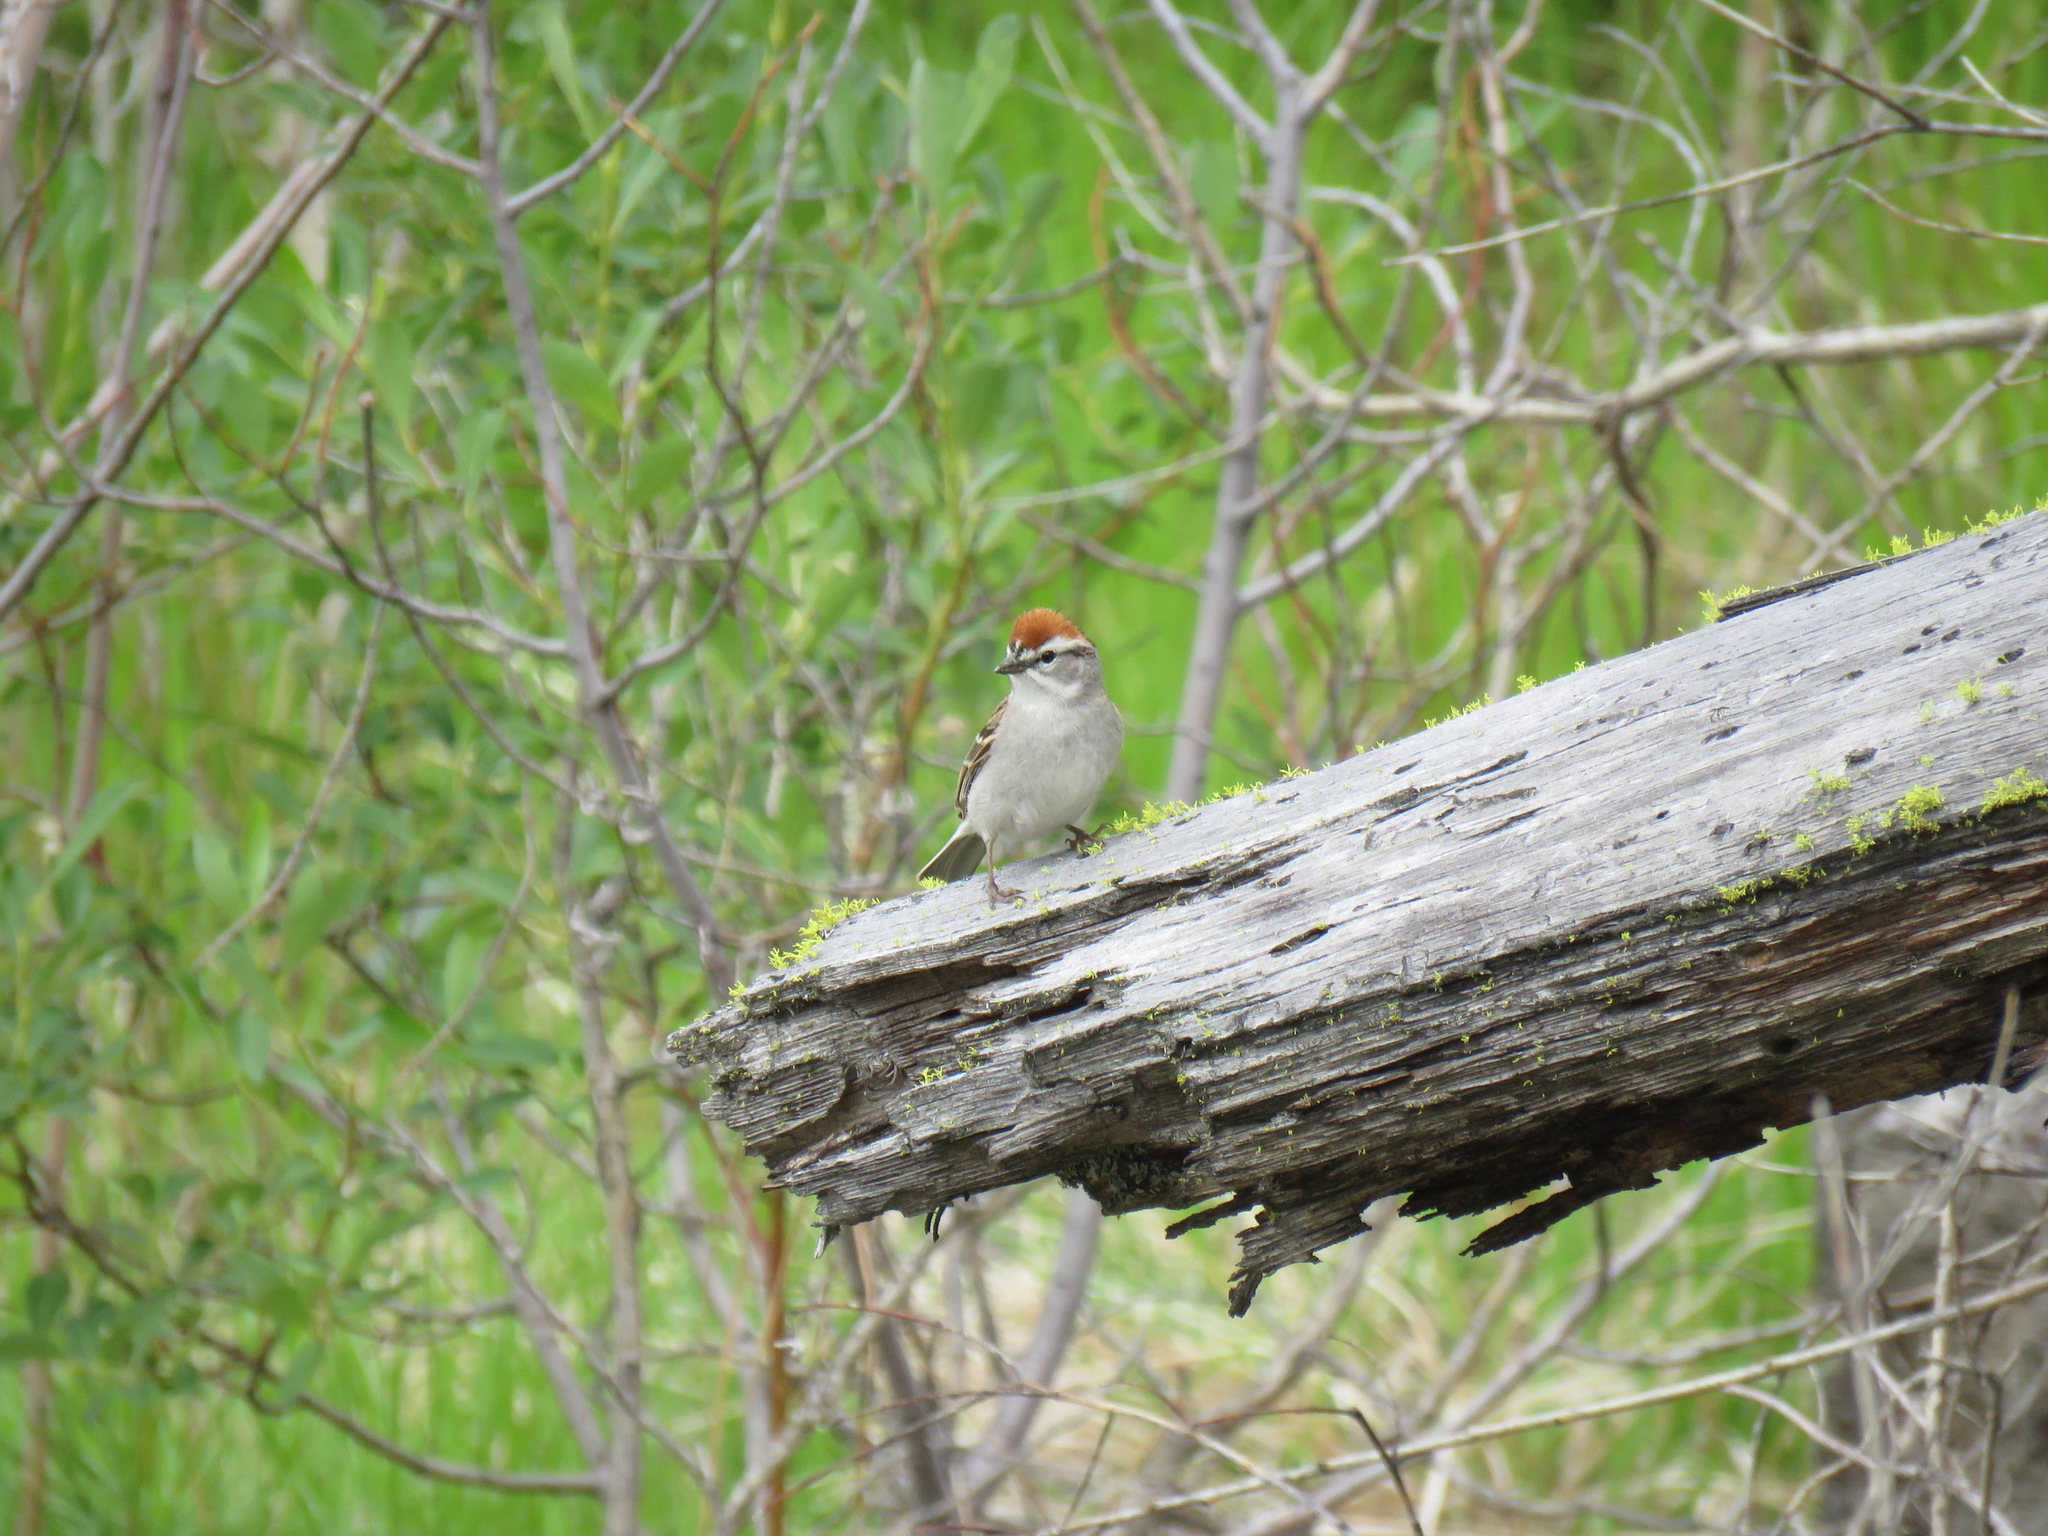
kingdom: Animalia
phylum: Chordata
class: Aves
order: Passeriformes
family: Passerellidae
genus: Spizella
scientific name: Spizella passerina
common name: Chipping sparrow
